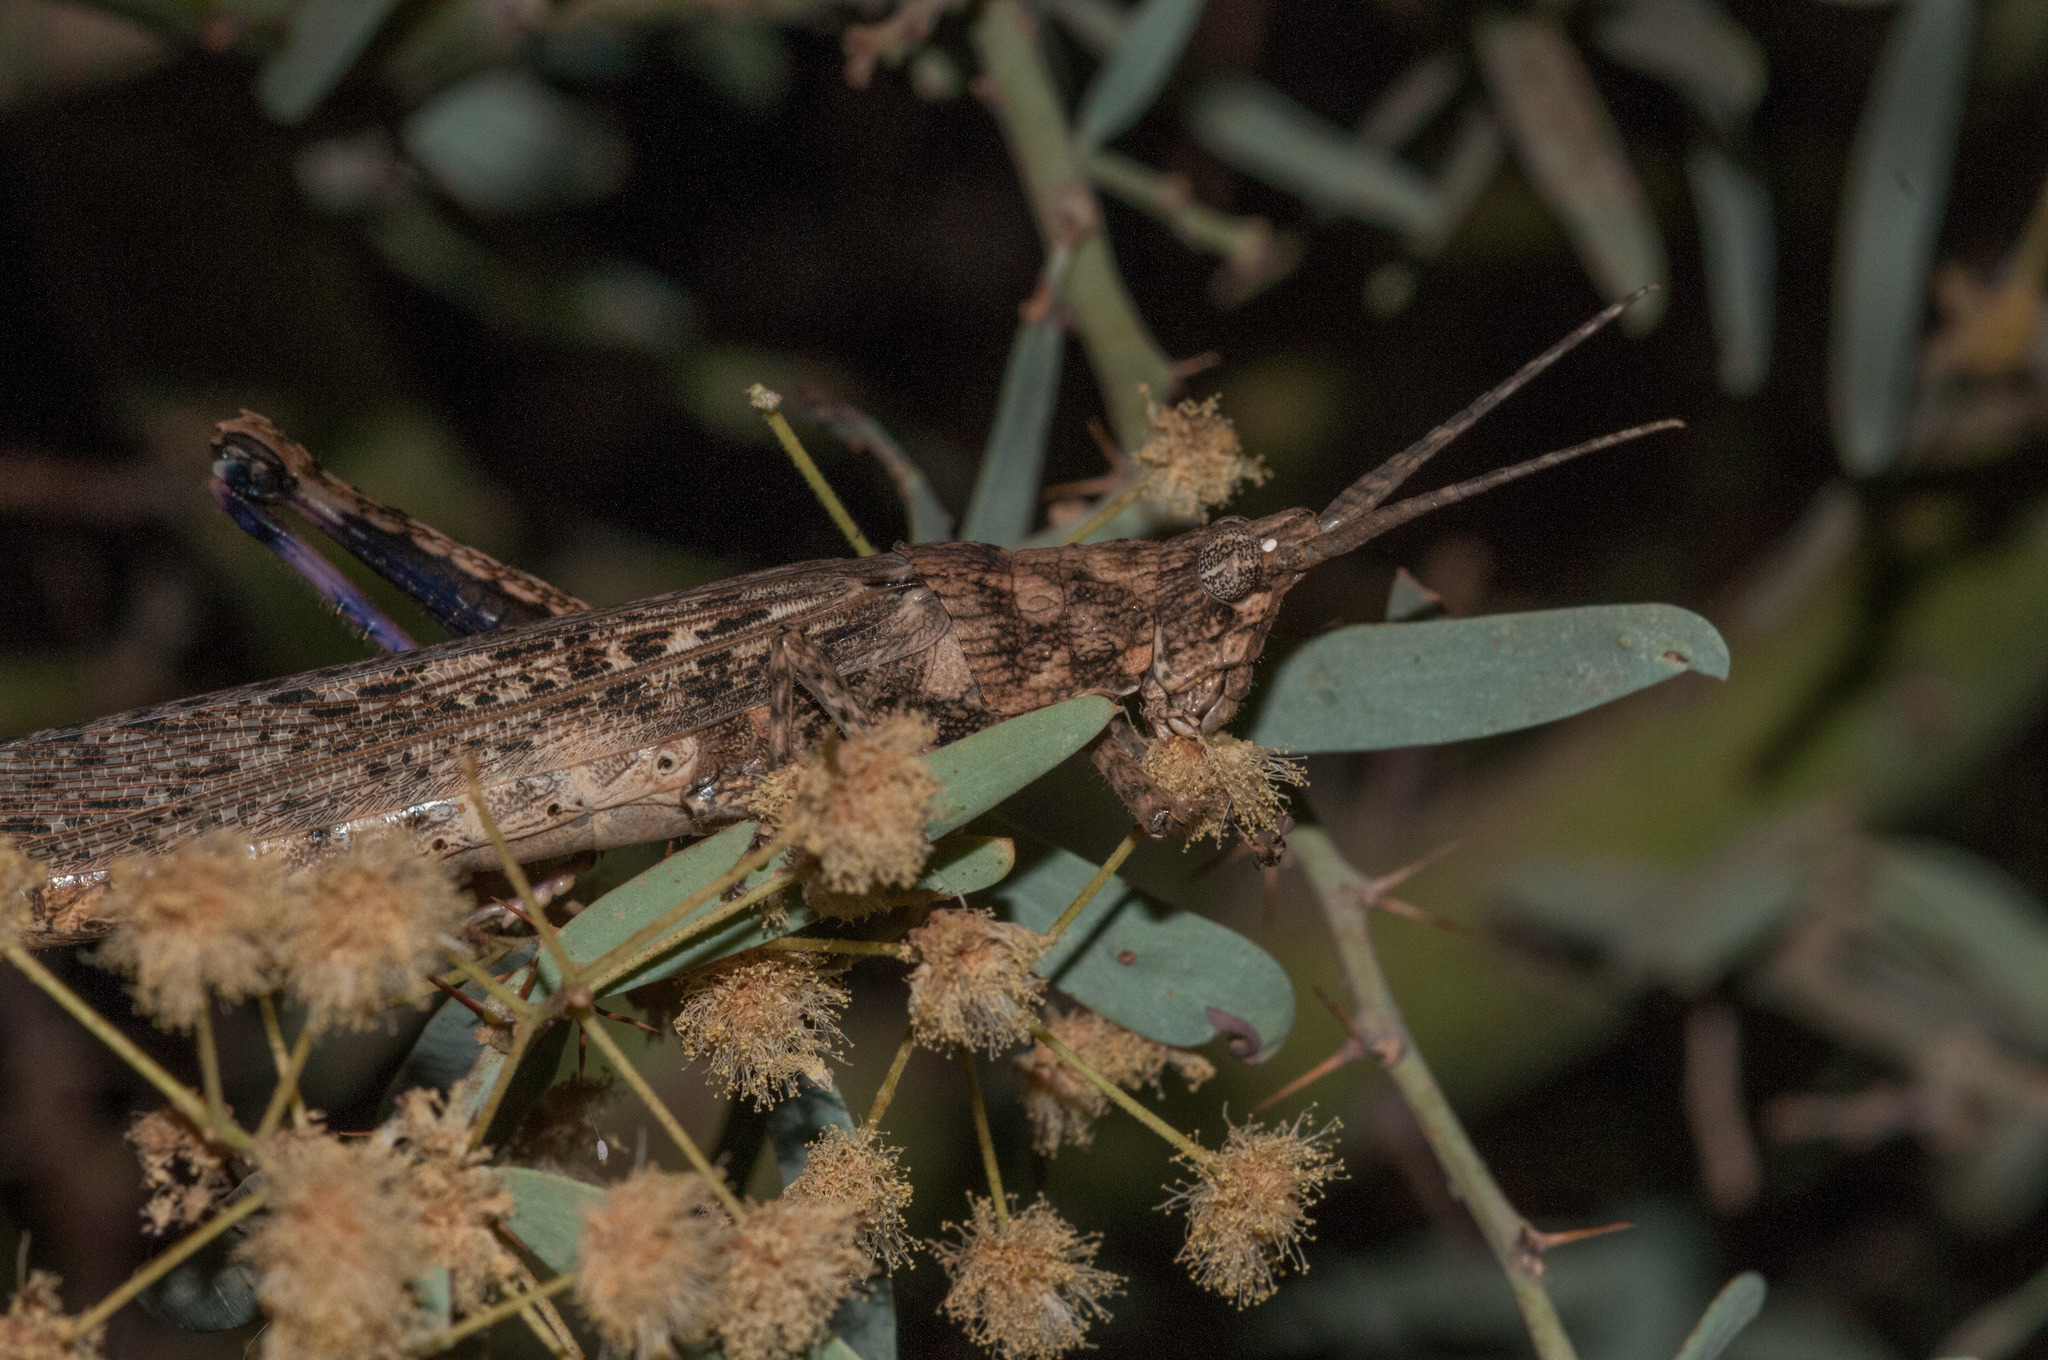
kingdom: Animalia
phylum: Arthropoda
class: Insecta
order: Orthoptera
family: Acrididae
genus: Coryphistes
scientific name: Coryphistes ruricola
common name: Bark-mimicking grasshopper
